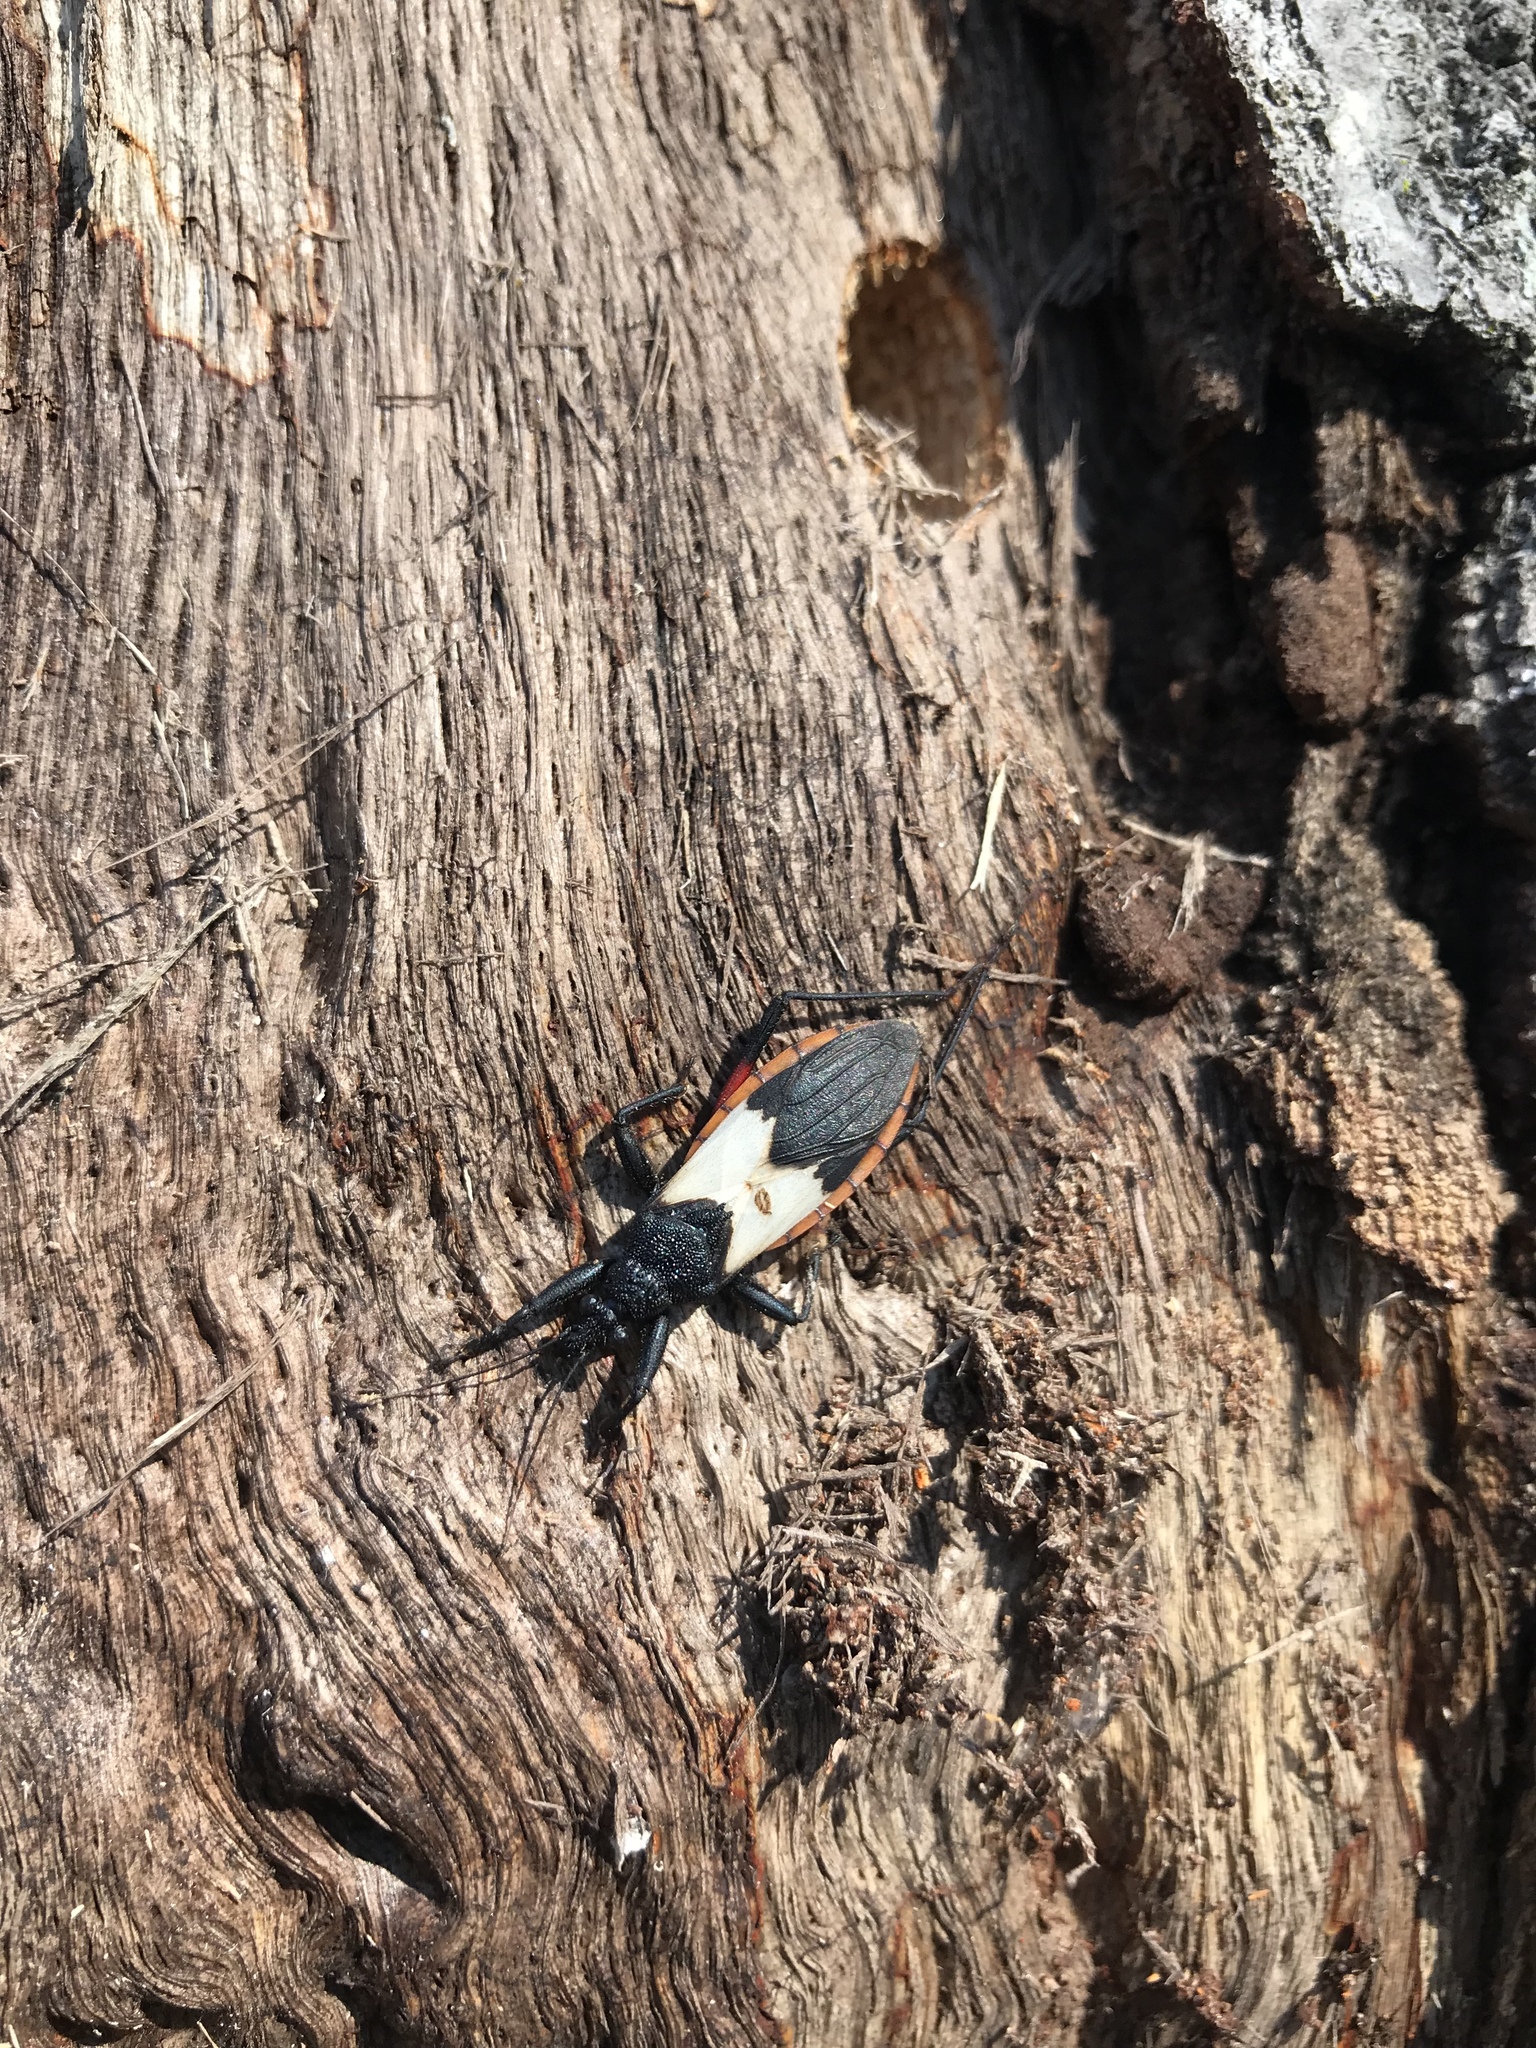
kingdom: Animalia
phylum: Arthropoda
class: Insecta
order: Hemiptera
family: Reduviidae
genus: Microtomus
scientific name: Microtomus purcis
